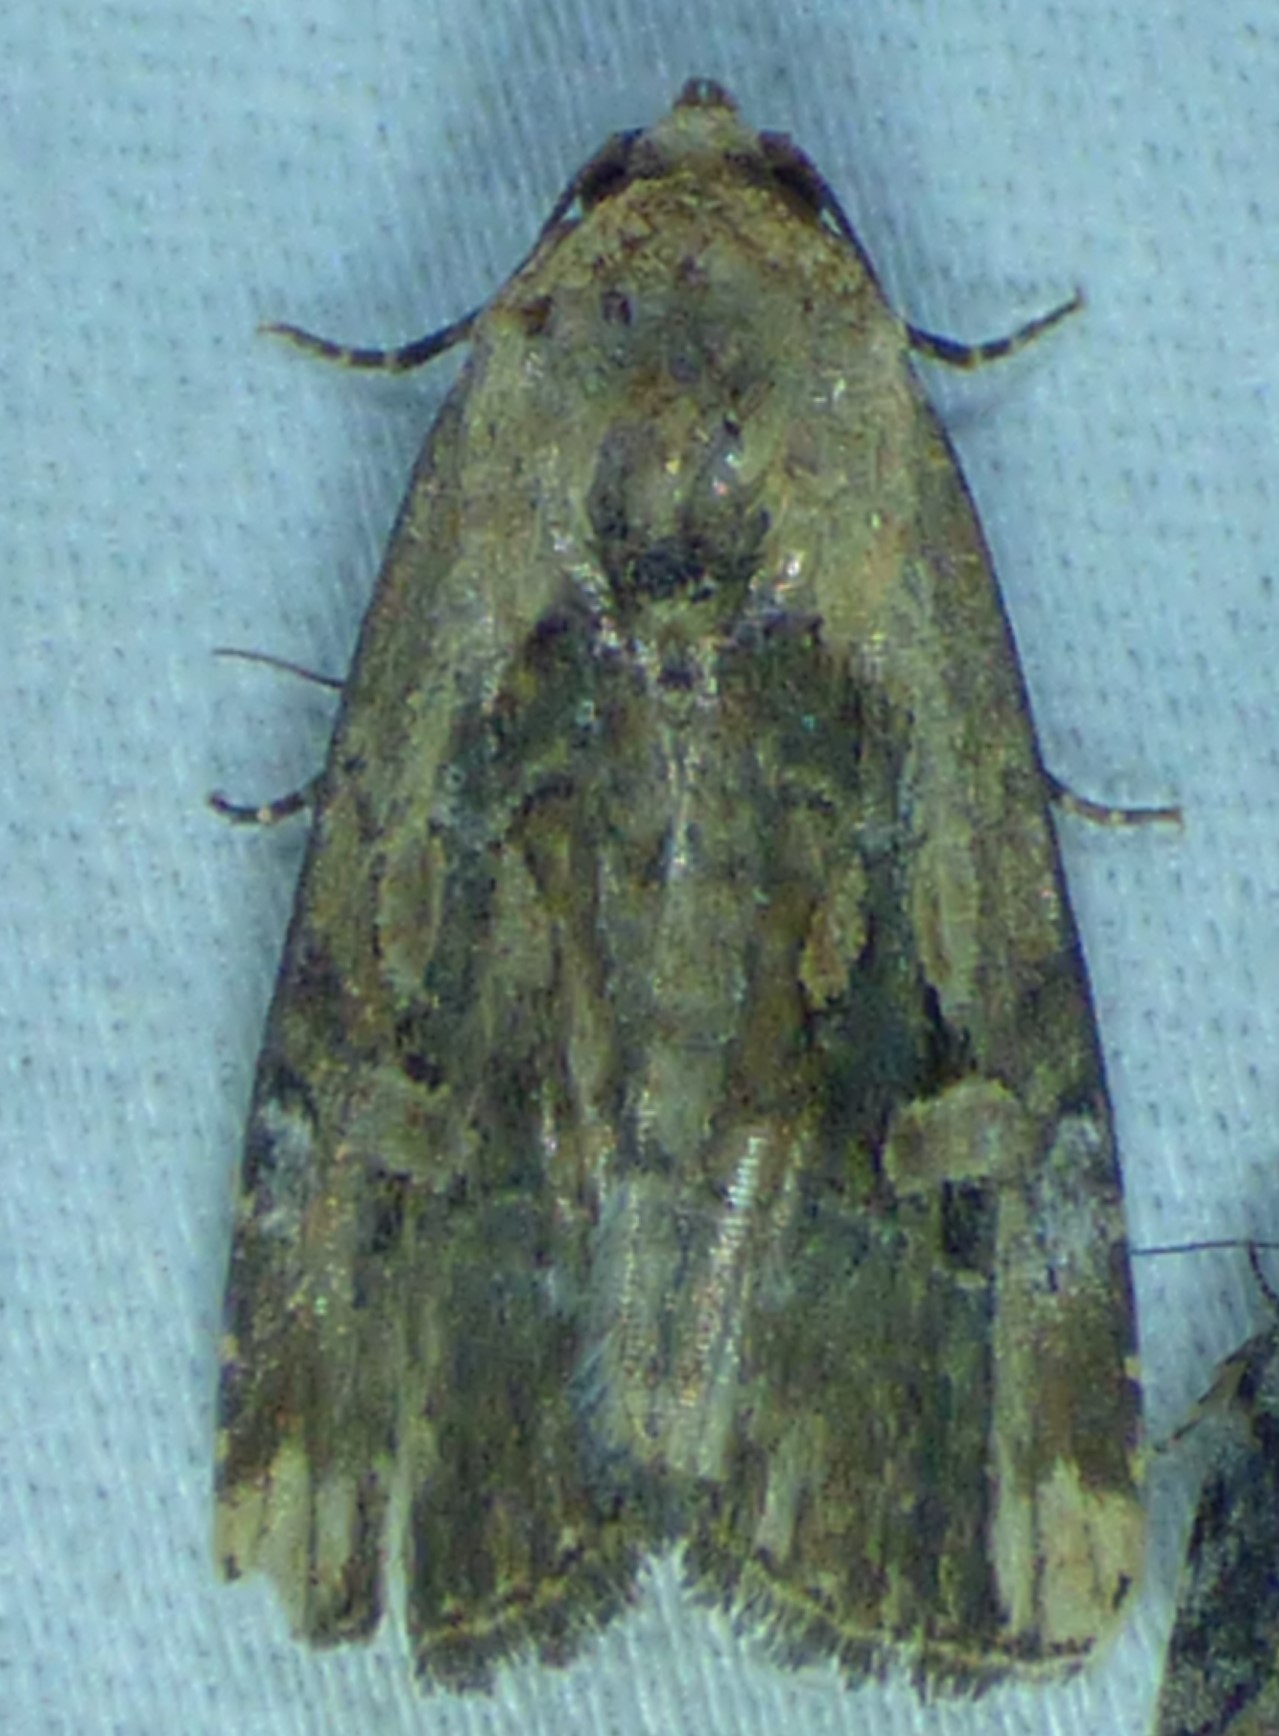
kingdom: Animalia
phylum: Arthropoda
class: Insecta
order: Lepidoptera
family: Noctuidae
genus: Elaphria
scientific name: Elaphria chalcedonia
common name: Chalcedony midget
